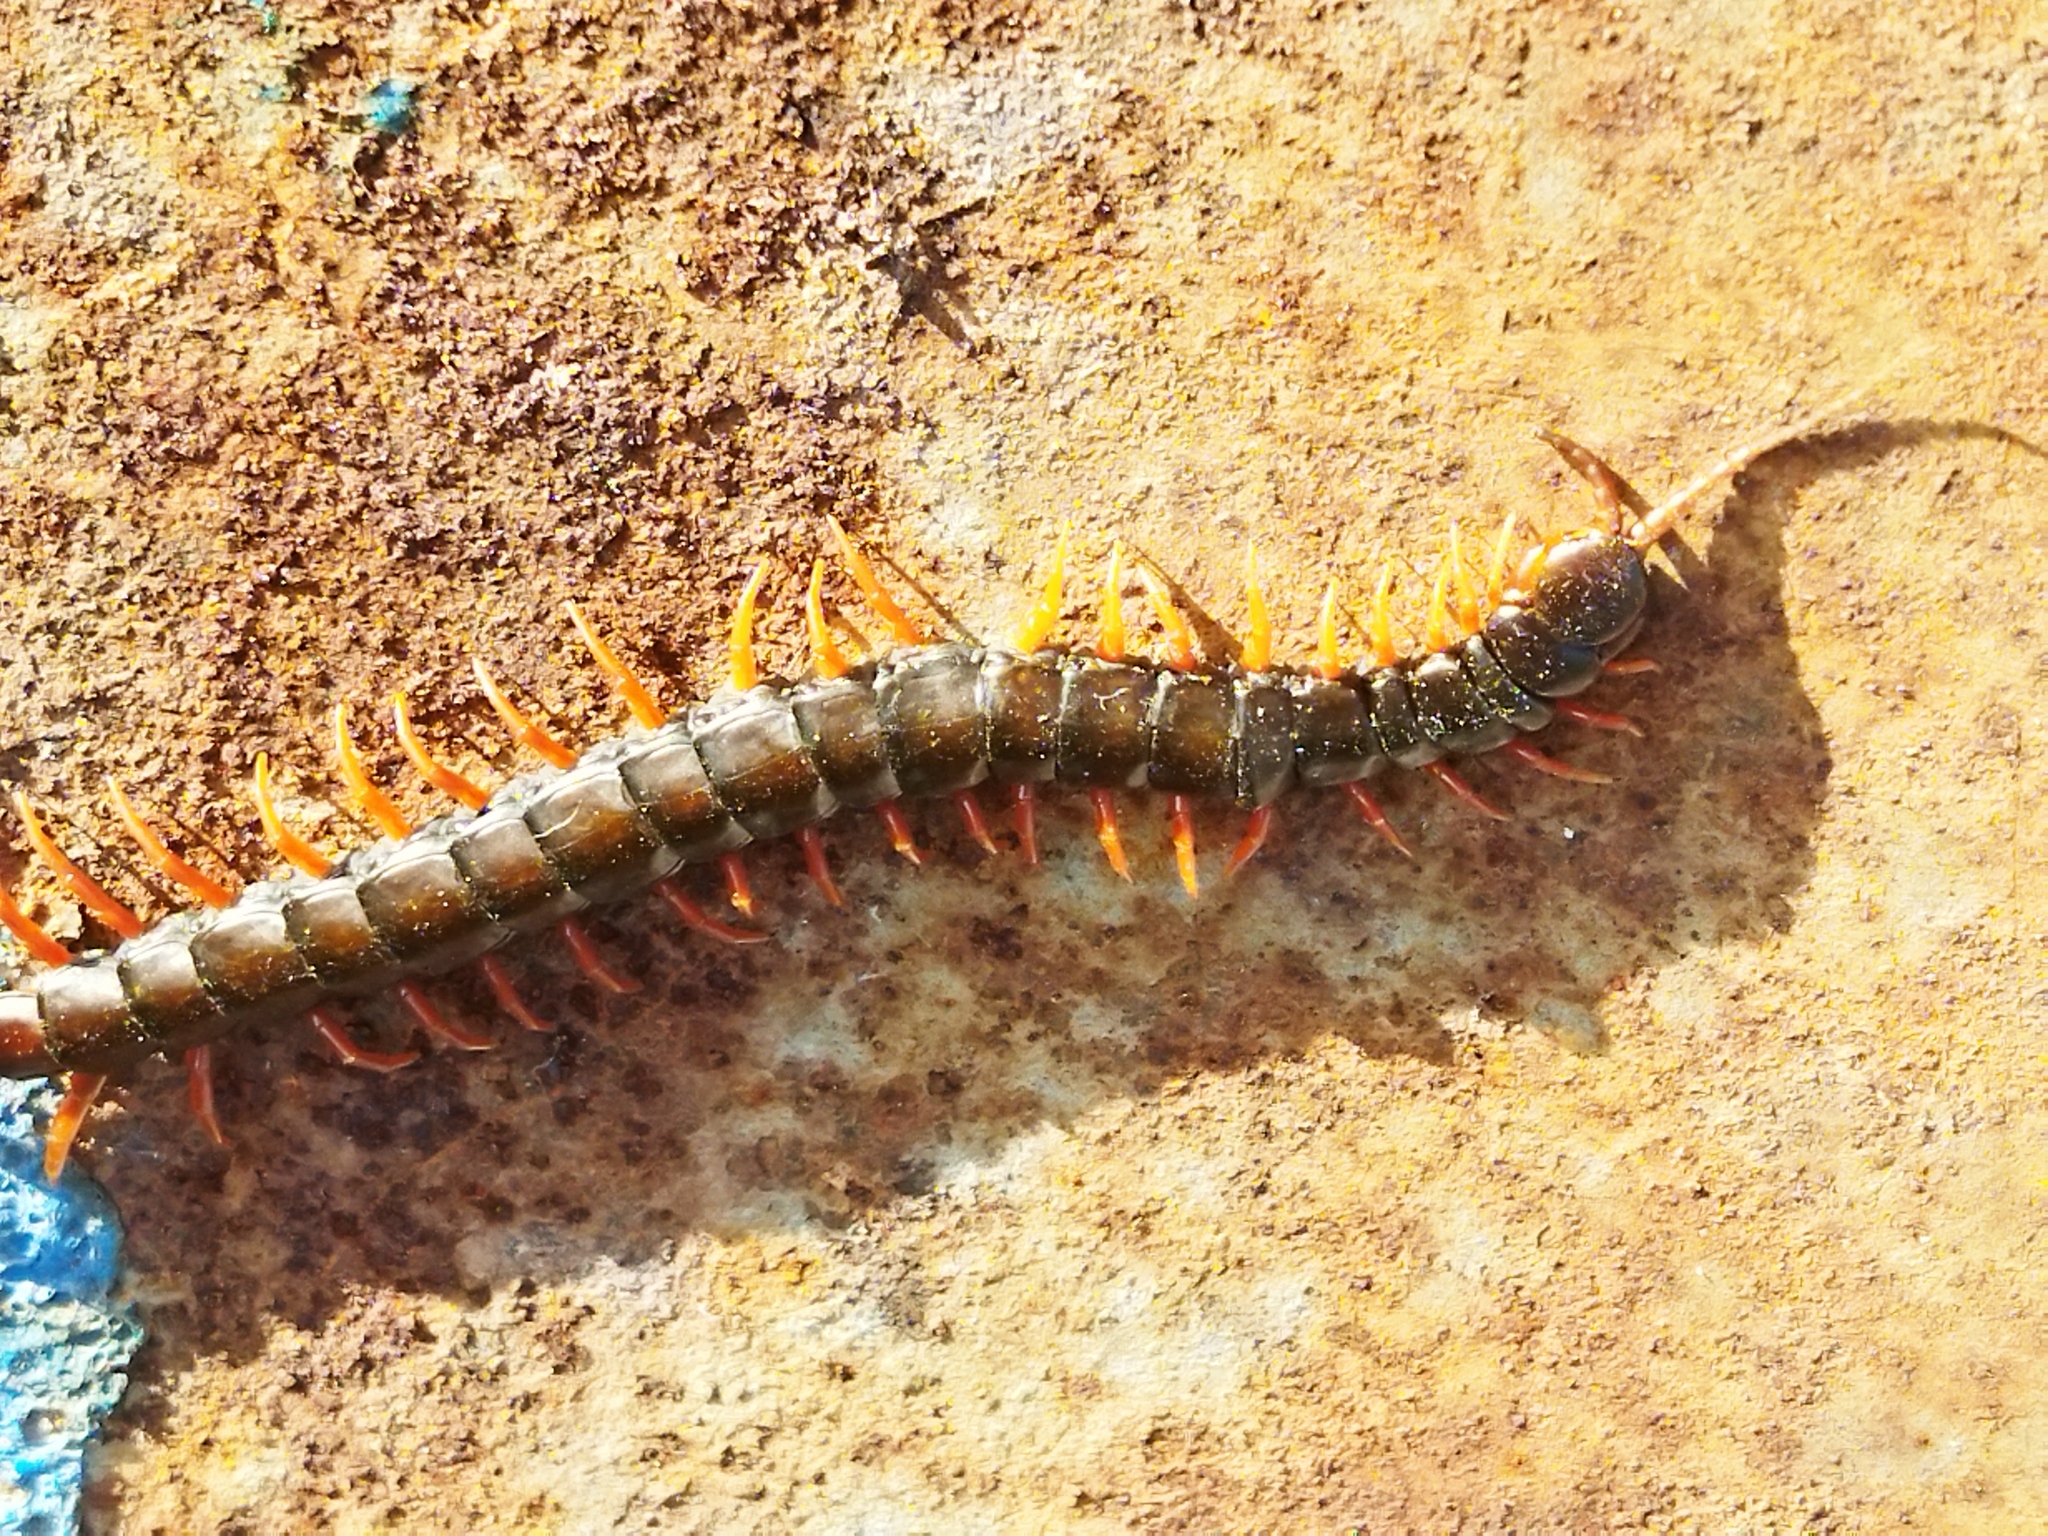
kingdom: Animalia
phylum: Arthropoda
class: Chilopoda
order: Scolopendromorpha
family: Scolopendridae
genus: Scolopendra
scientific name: Scolopendra cingulata
